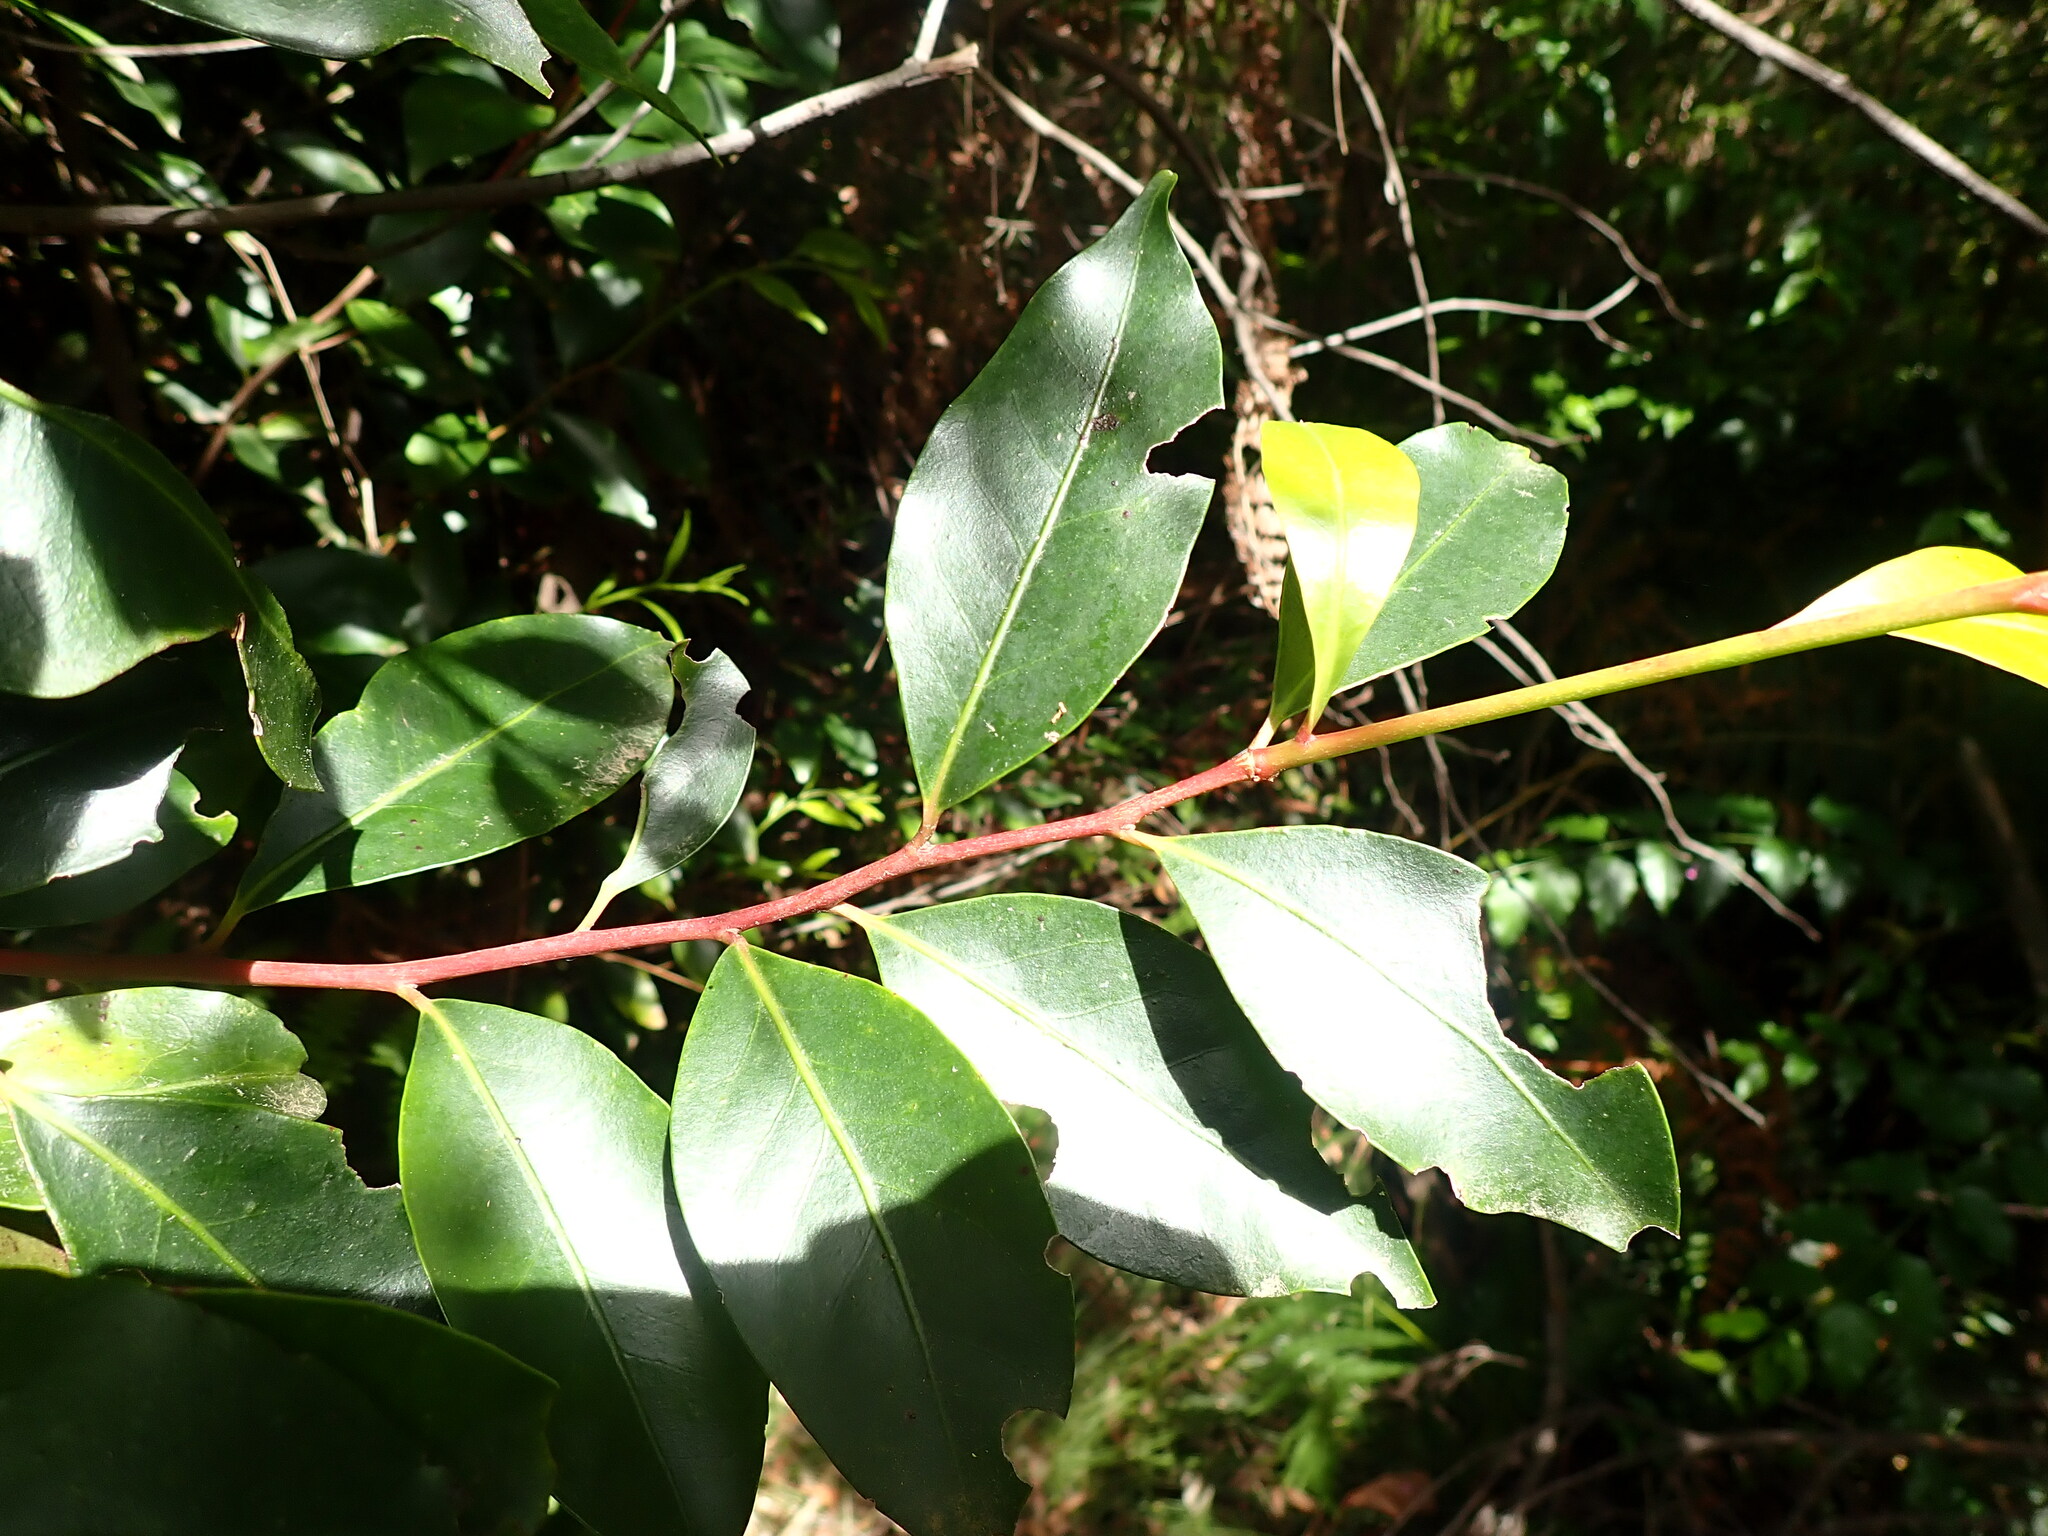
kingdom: Plantae
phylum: Tracheophyta
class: Magnoliopsida
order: Metteniusales
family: Metteniusaceae
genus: Apodytes
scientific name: Apodytes dimidiata
